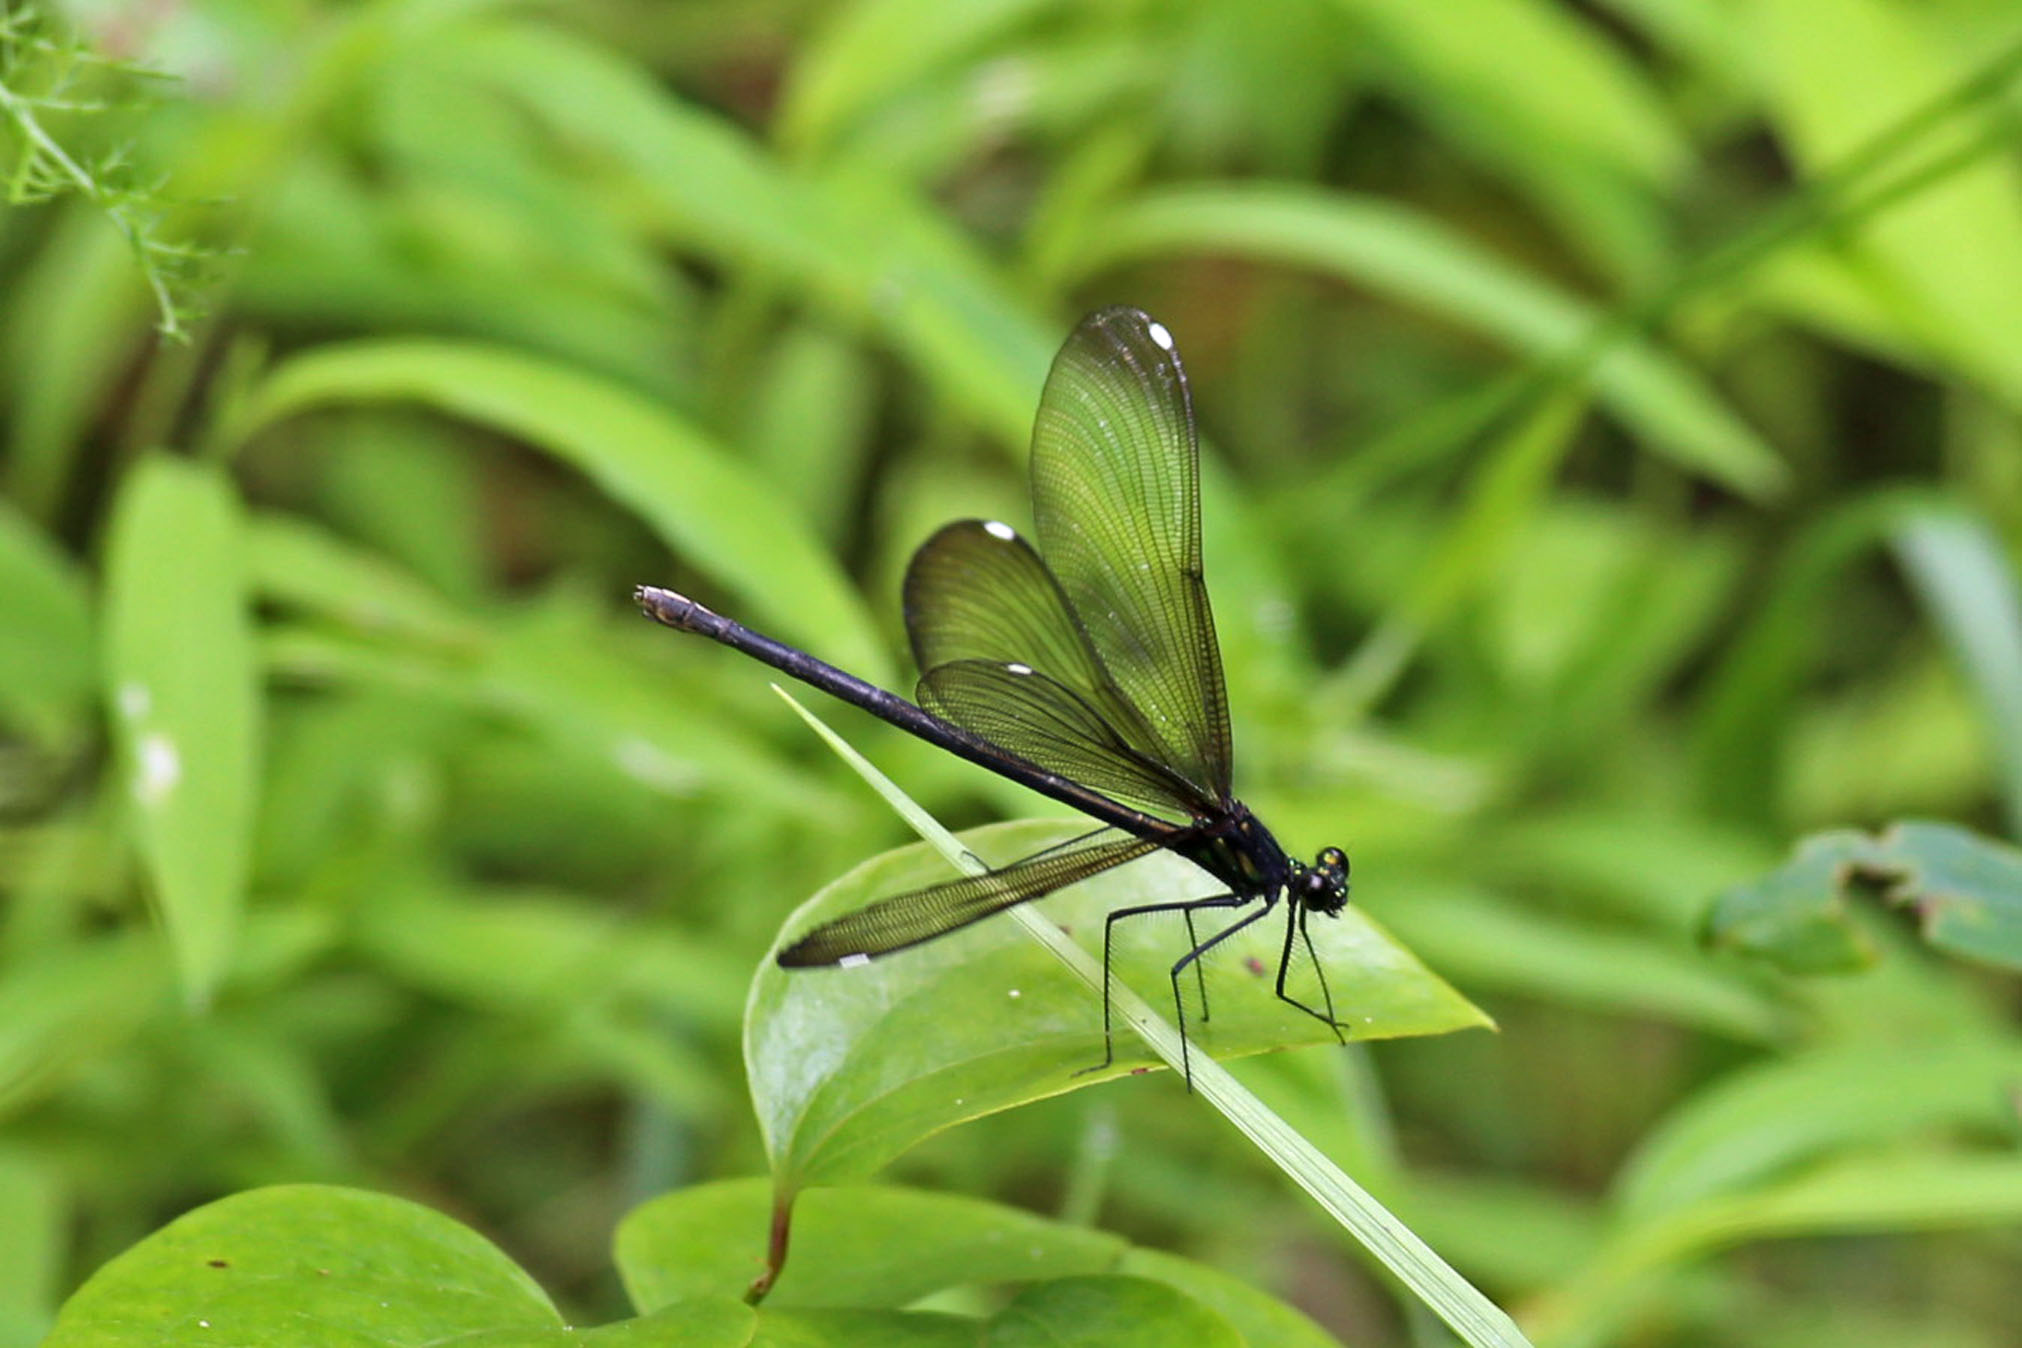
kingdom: Animalia
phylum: Arthropoda
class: Insecta
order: Odonata
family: Calopterygidae
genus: Calopteryx
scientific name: Calopteryx maculata
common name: Ebony jewelwing
